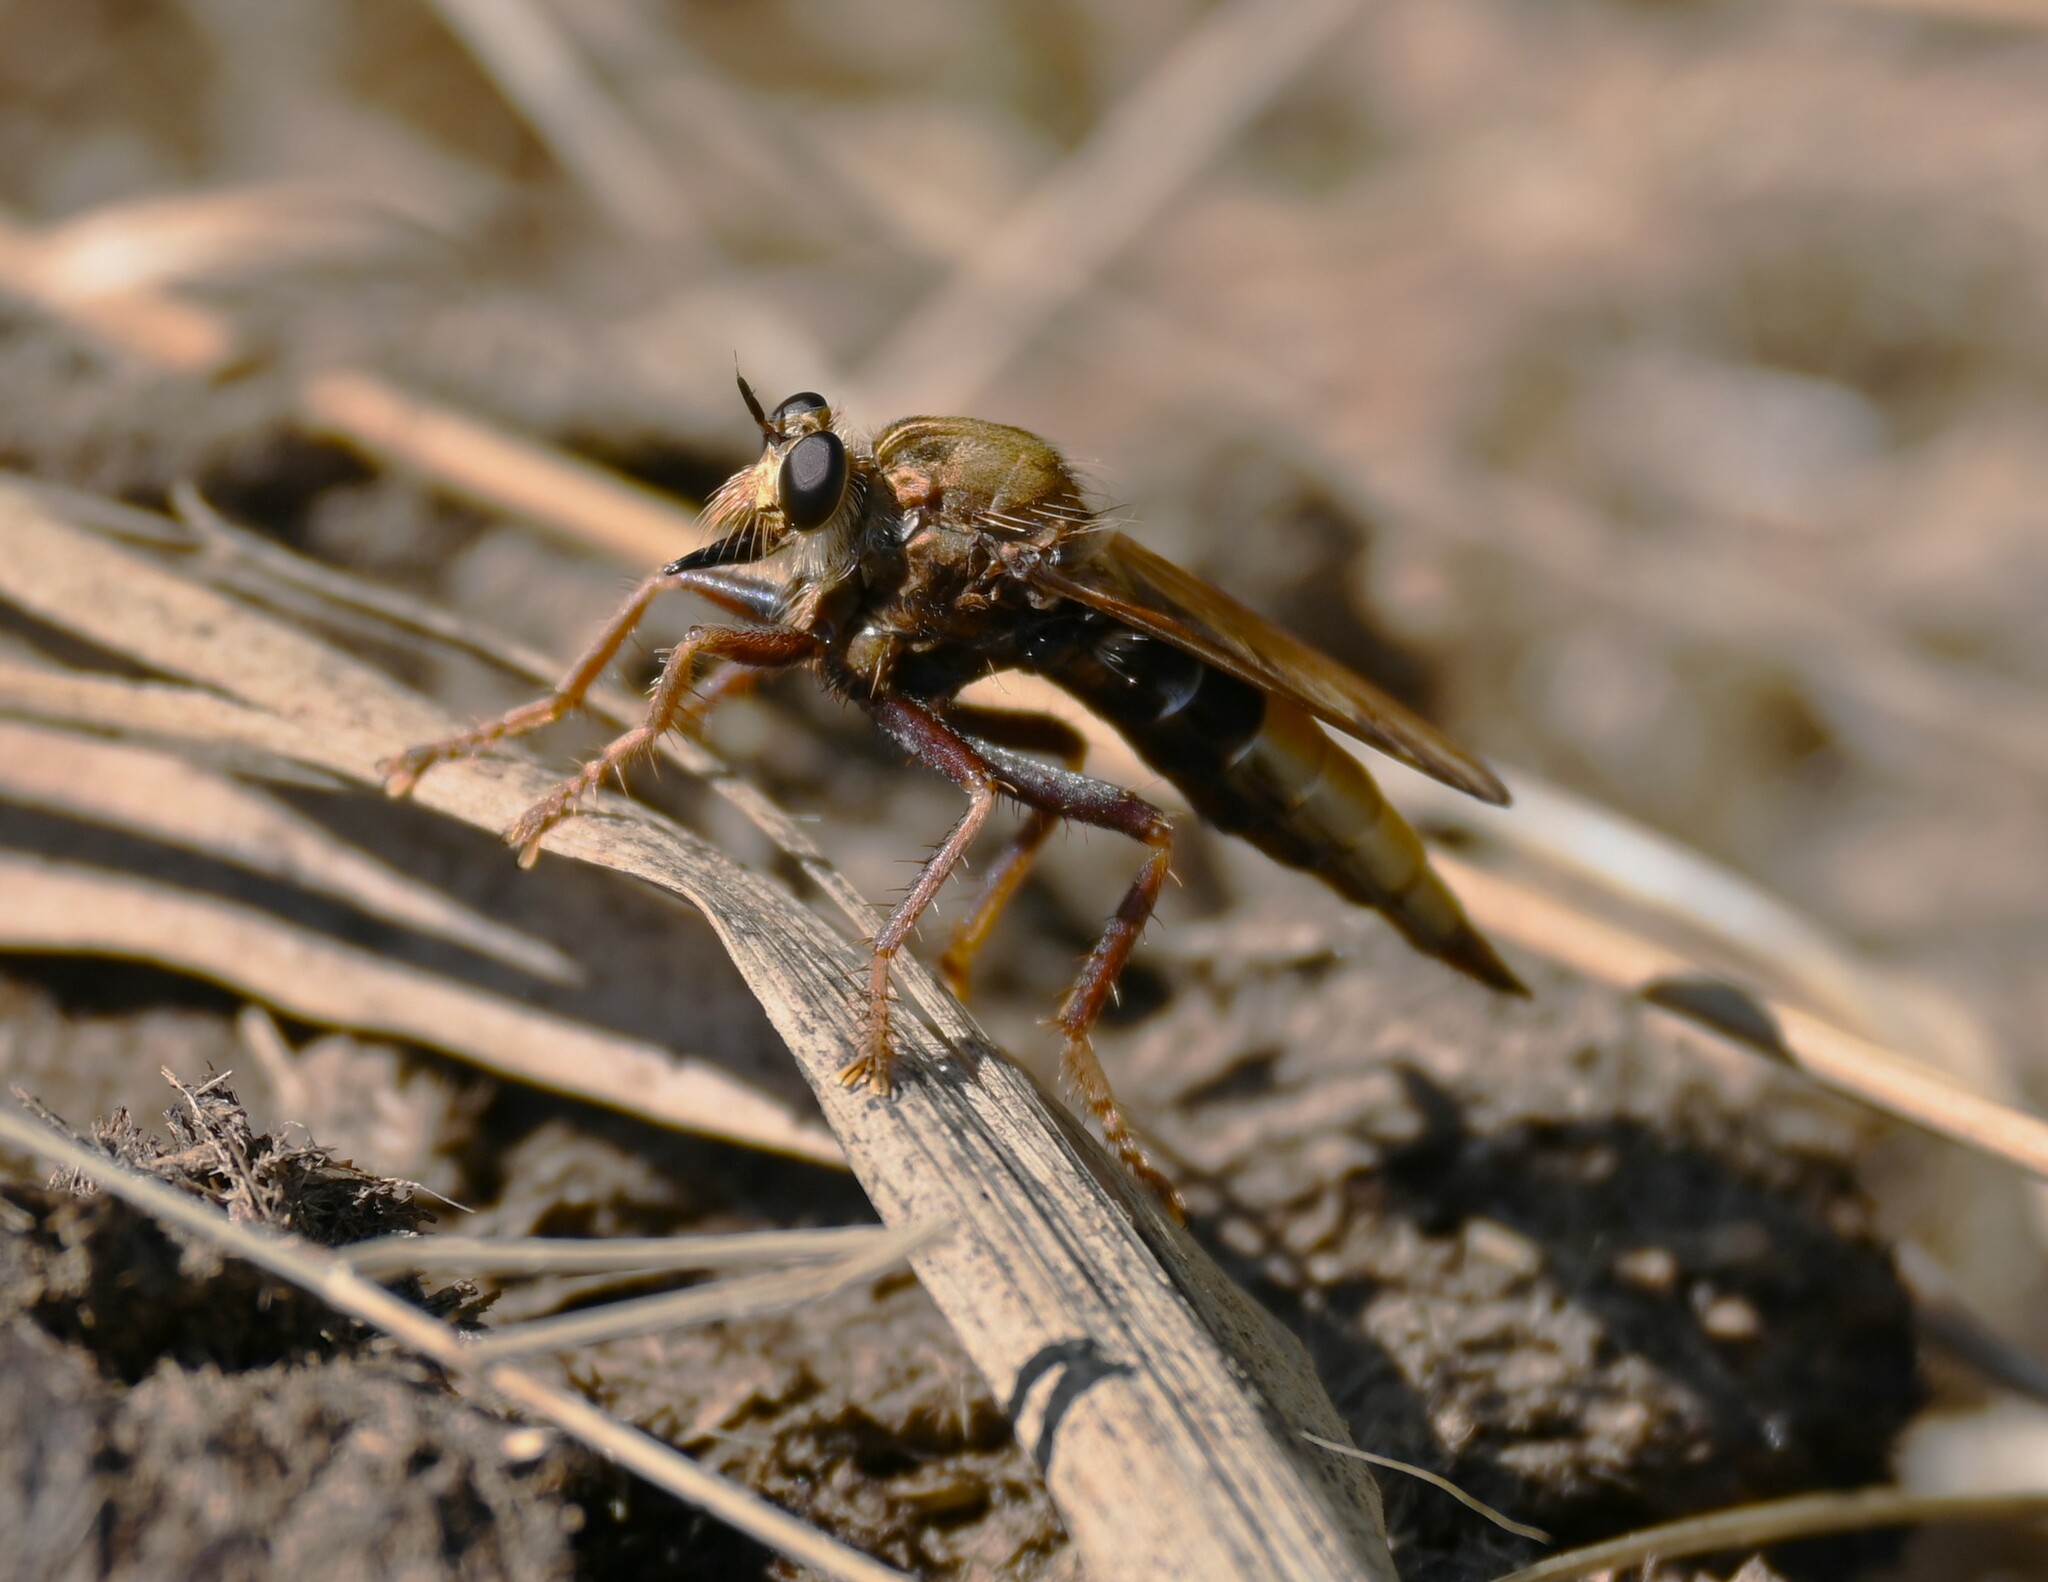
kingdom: Animalia
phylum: Arthropoda
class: Insecta
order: Diptera
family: Asilidae
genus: Asilus
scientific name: Asilus crabroniformis
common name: Hornet robberfly
